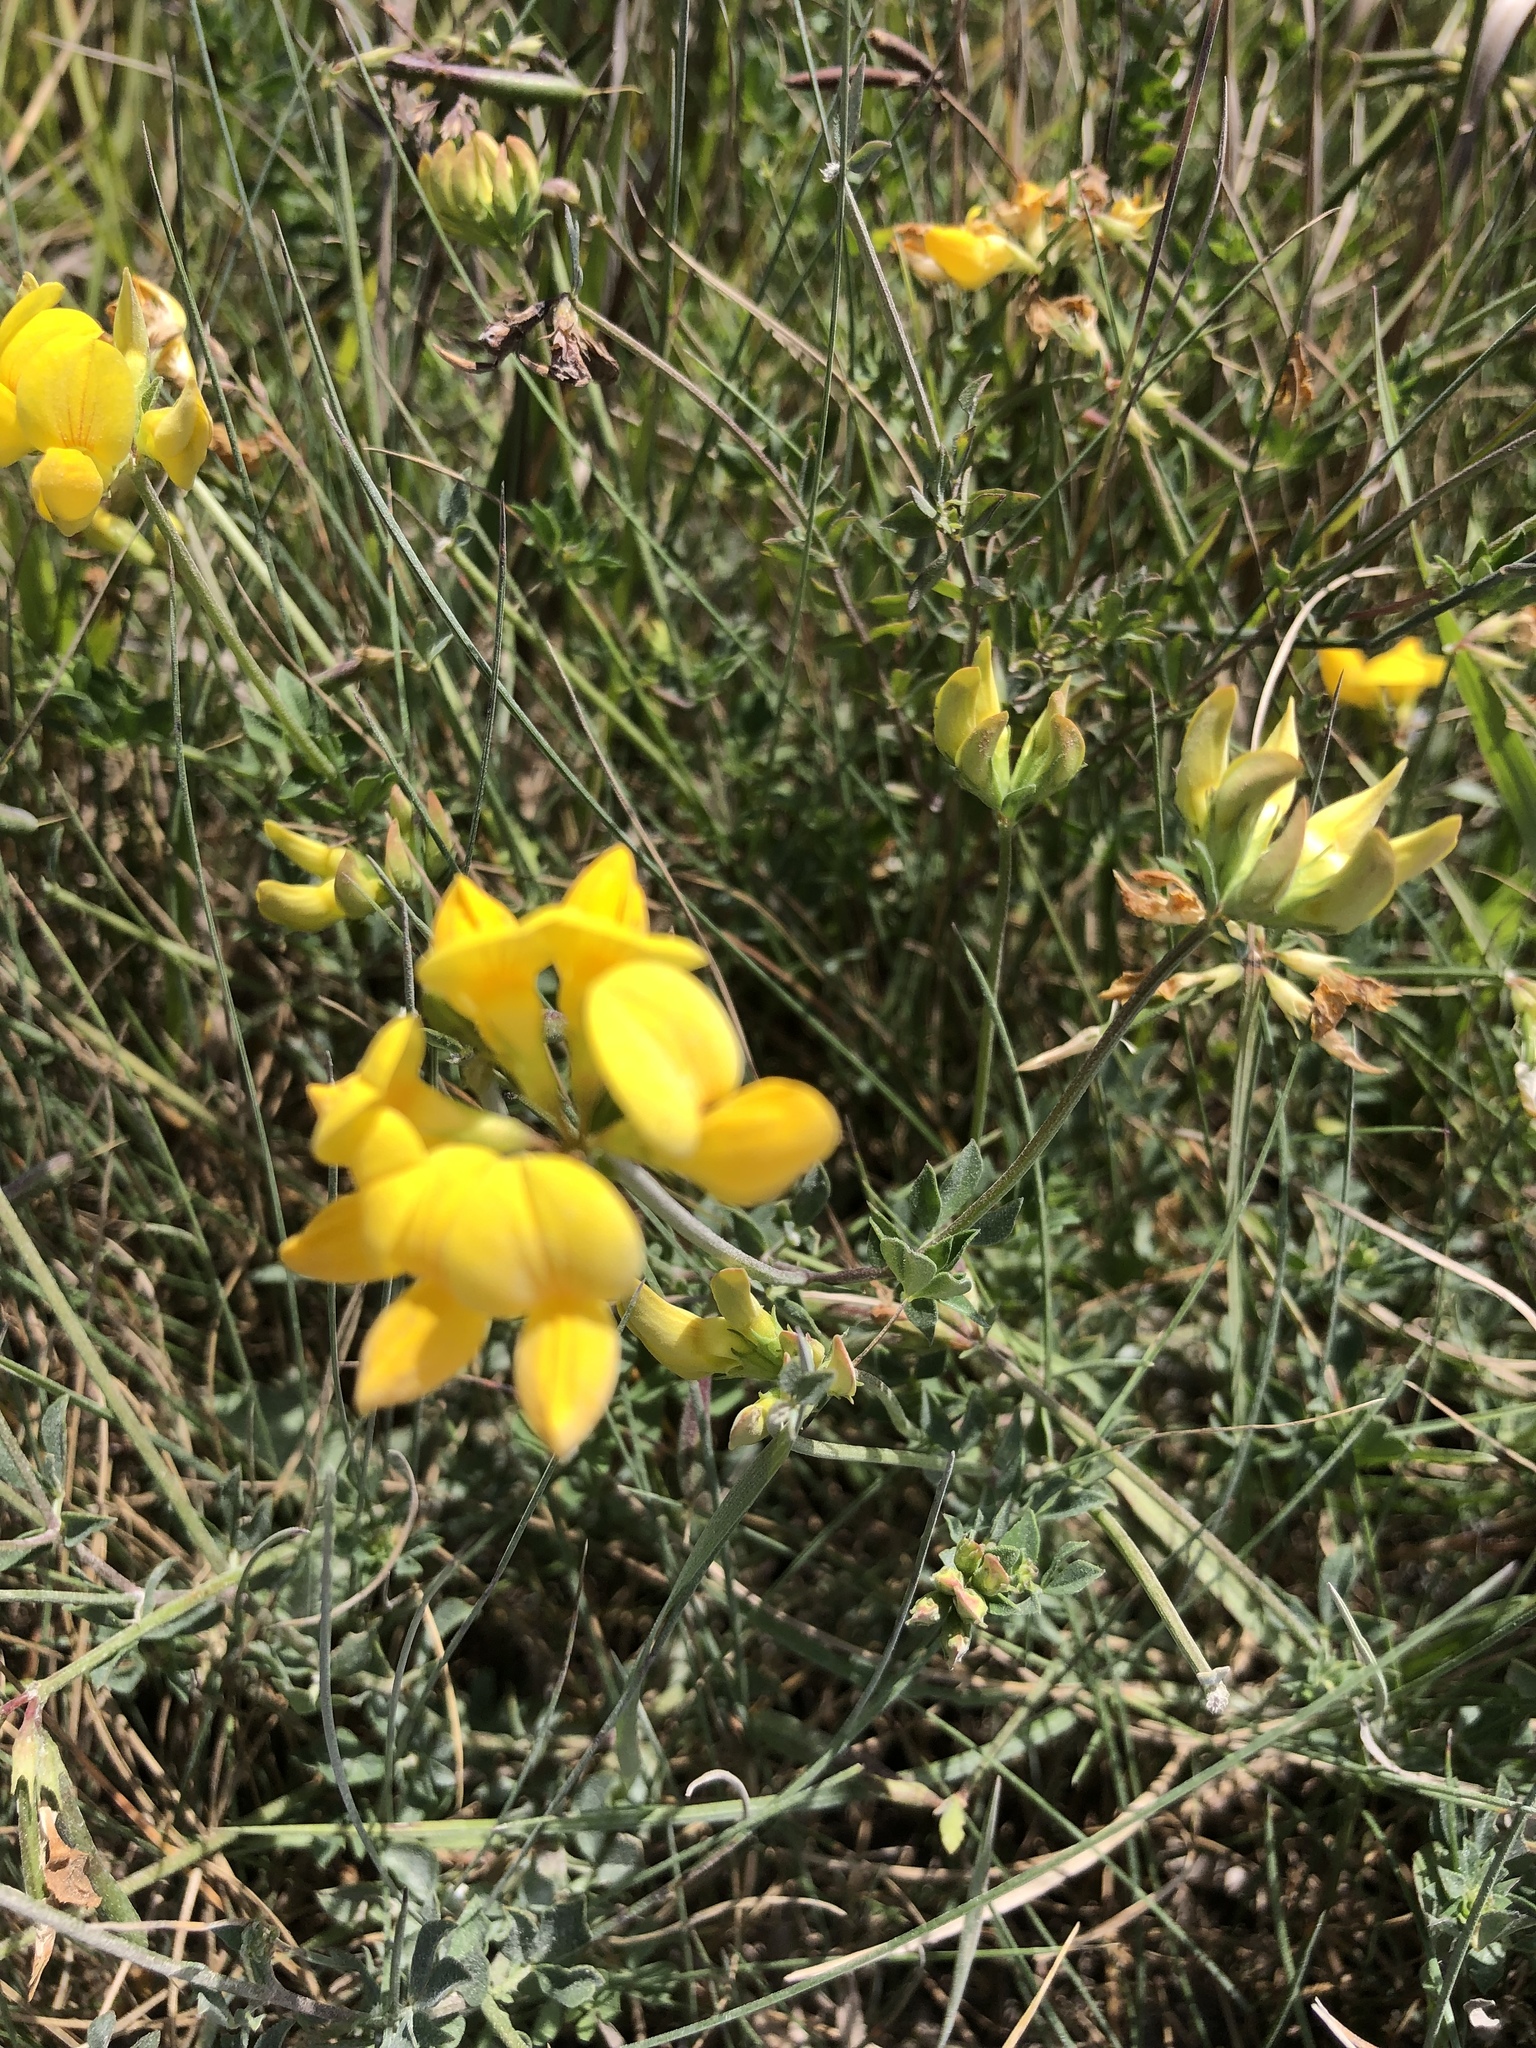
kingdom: Plantae
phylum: Tracheophyta
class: Magnoliopsida
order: Fabales
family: Fabaceae
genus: Lotus
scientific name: Lotus corniculatus
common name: Common bird's-foot-trefoil
